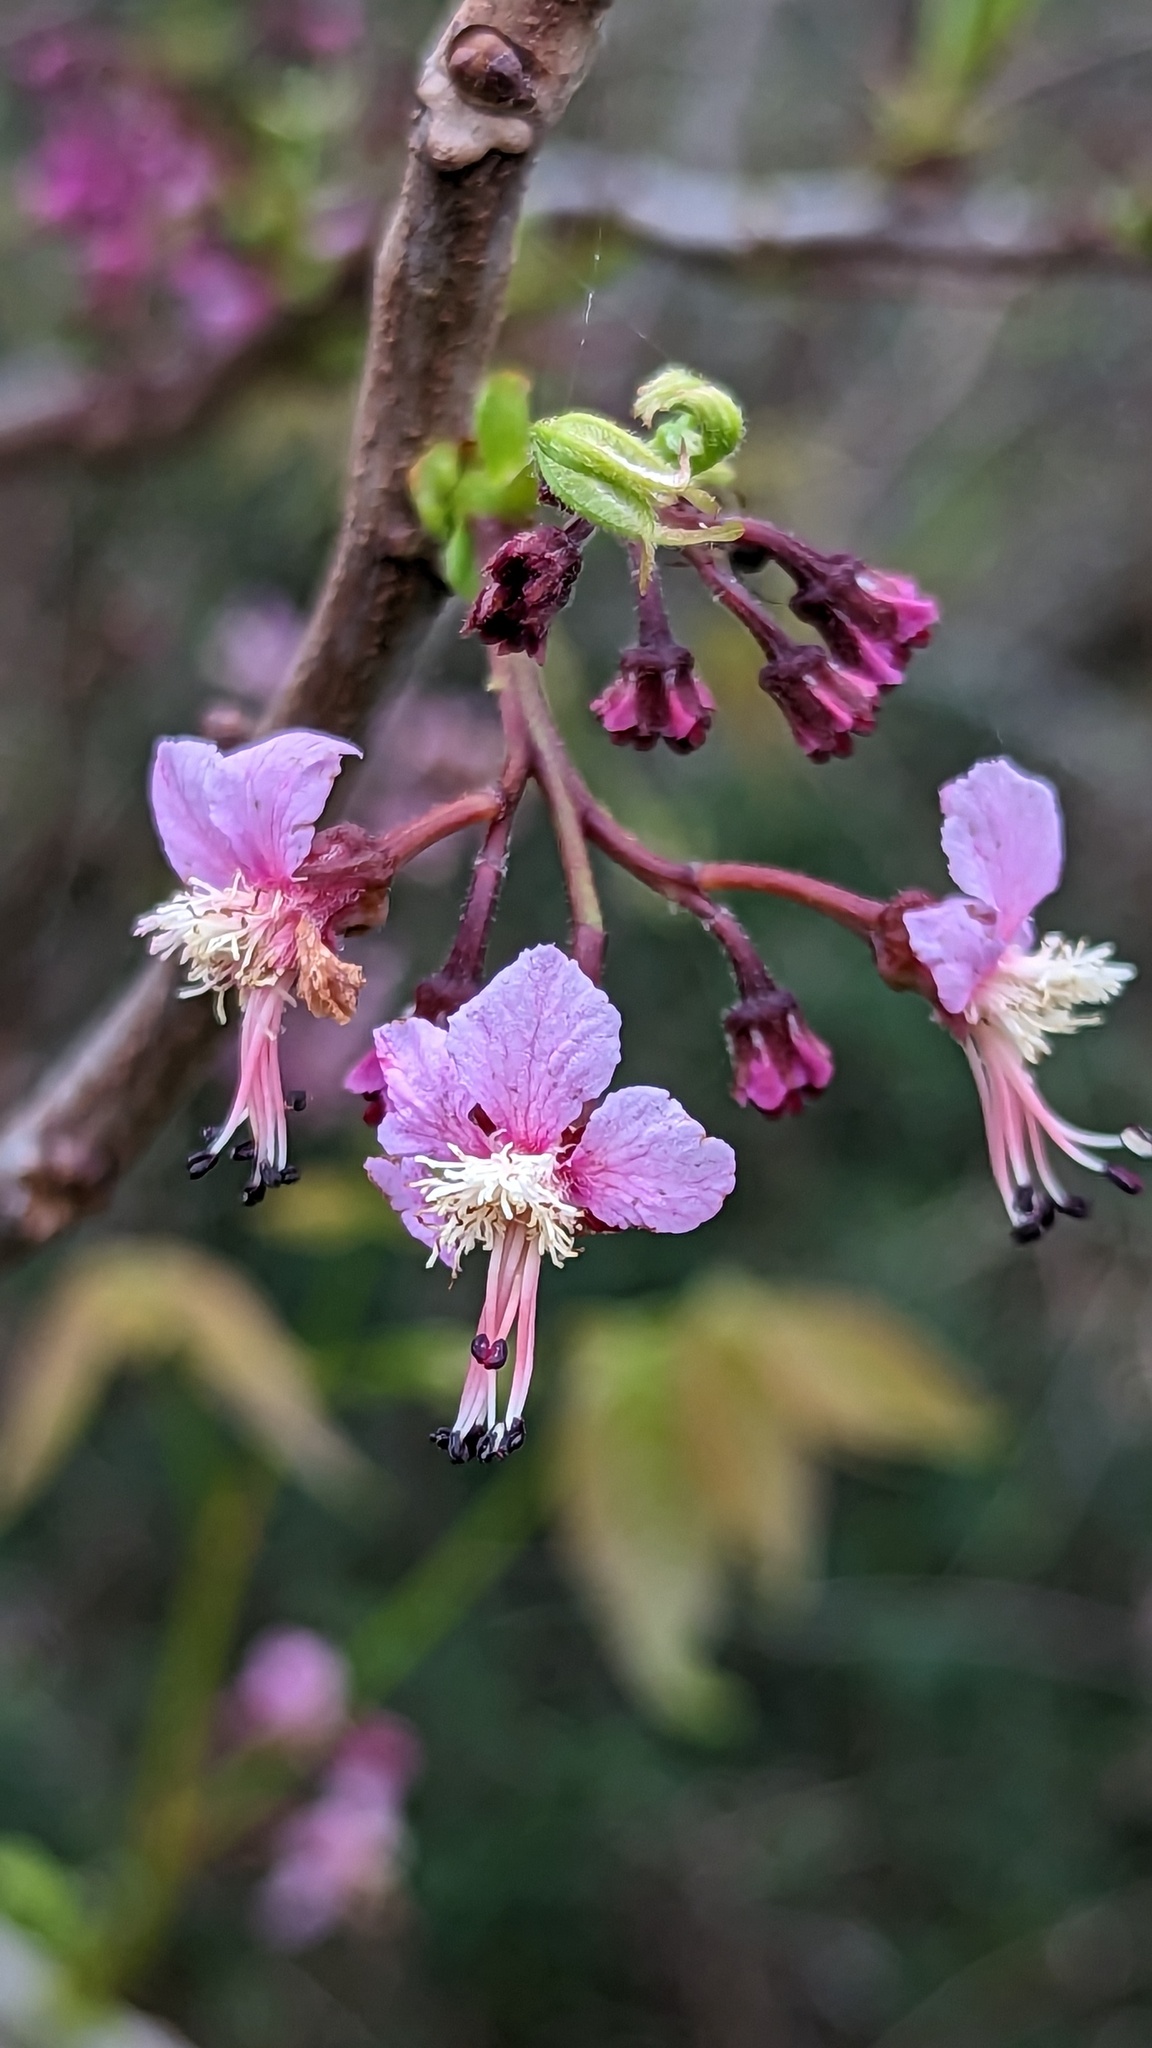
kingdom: Plantae
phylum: Tracheophyta
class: Magnoliopsida
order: Sapindales
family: Sapindaceae
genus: Ungnadia
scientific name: Ungnadia speciosa
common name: Texas-buckeye
